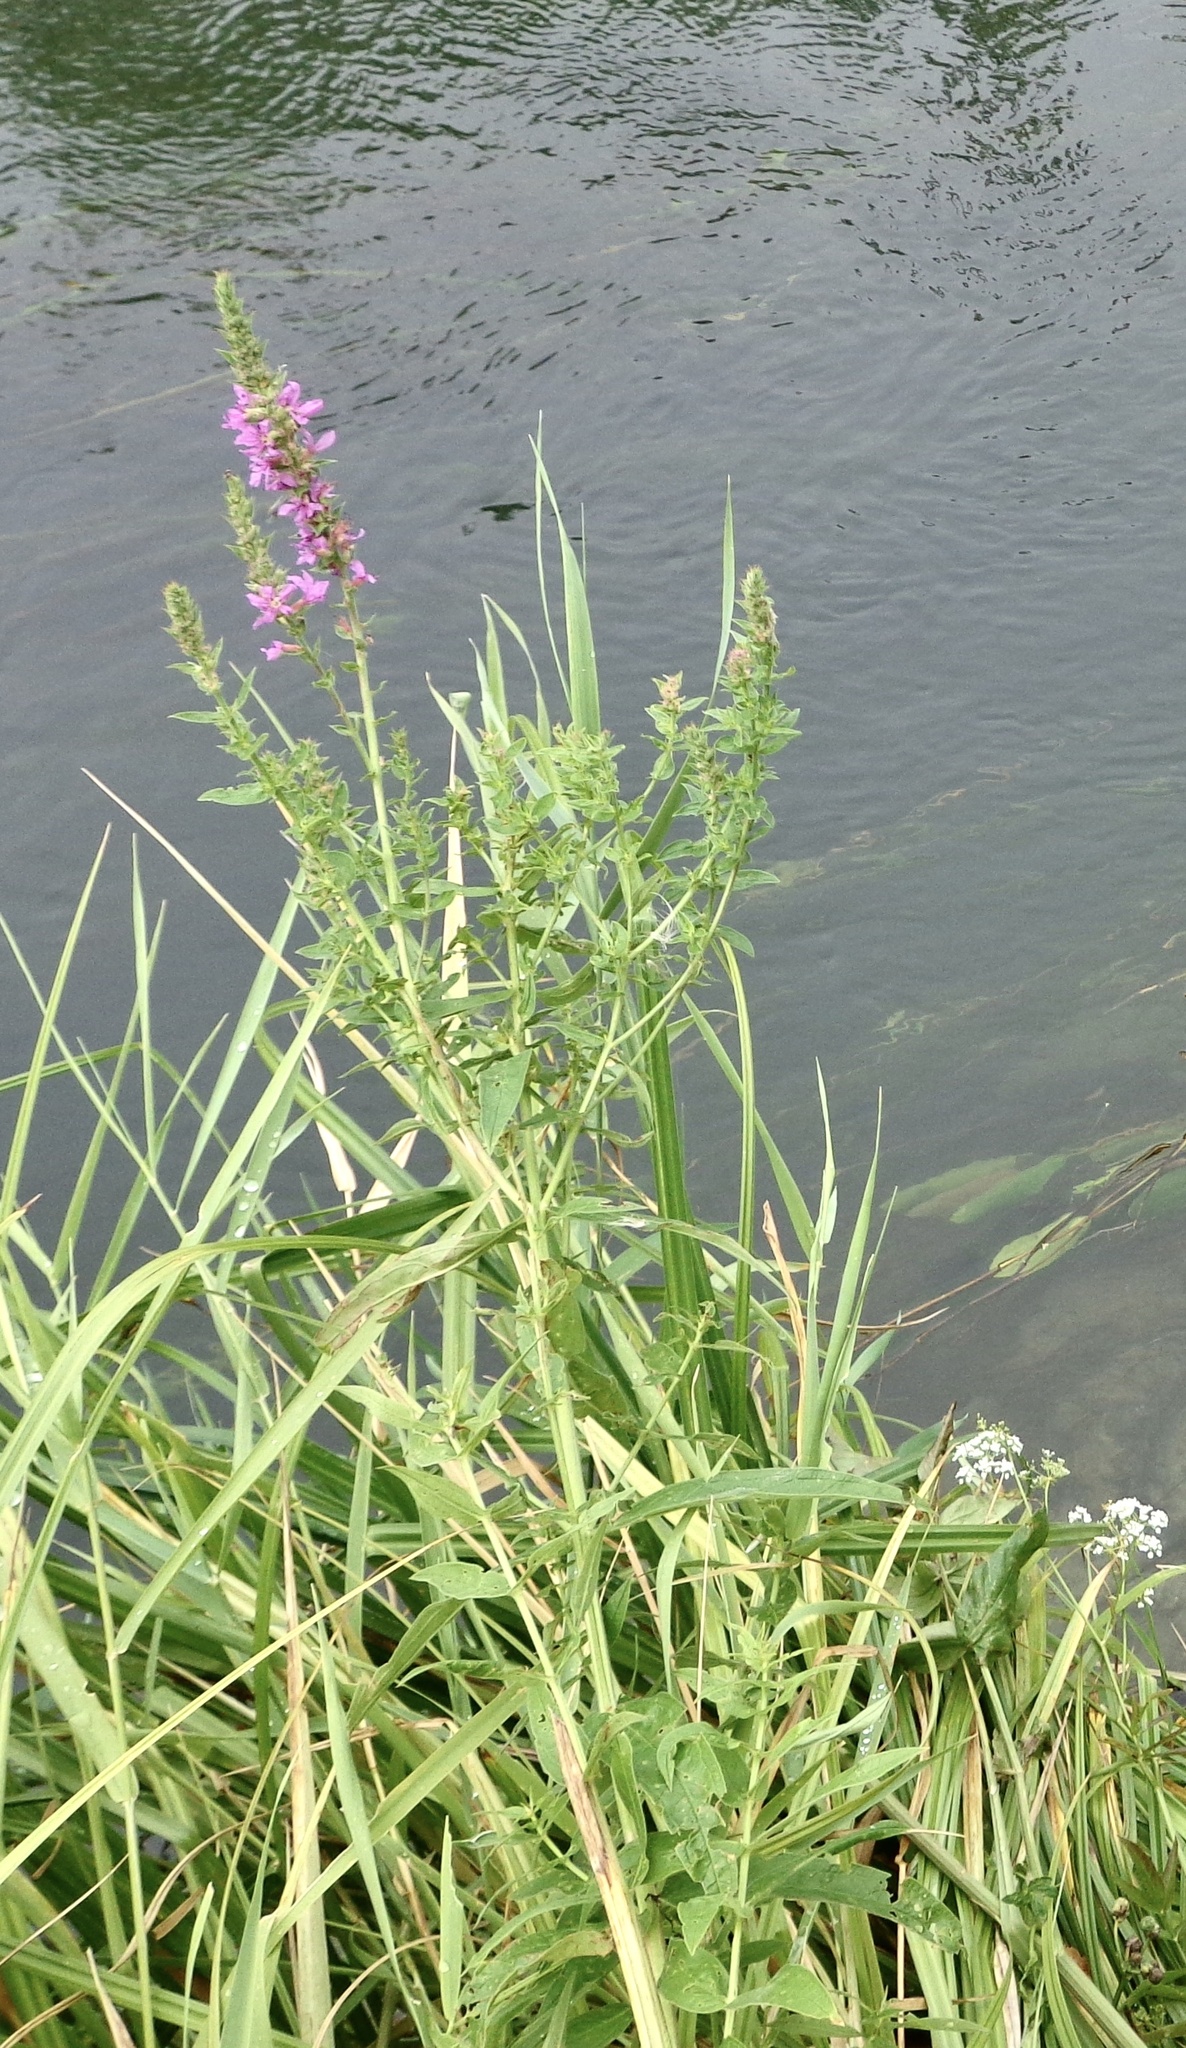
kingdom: Plantae
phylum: Tracheophyta
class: Magnoliopsida
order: Myrtales
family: Lythraceae
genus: Lythrum
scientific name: Lythrum salicaria
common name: Purple loosestrife
